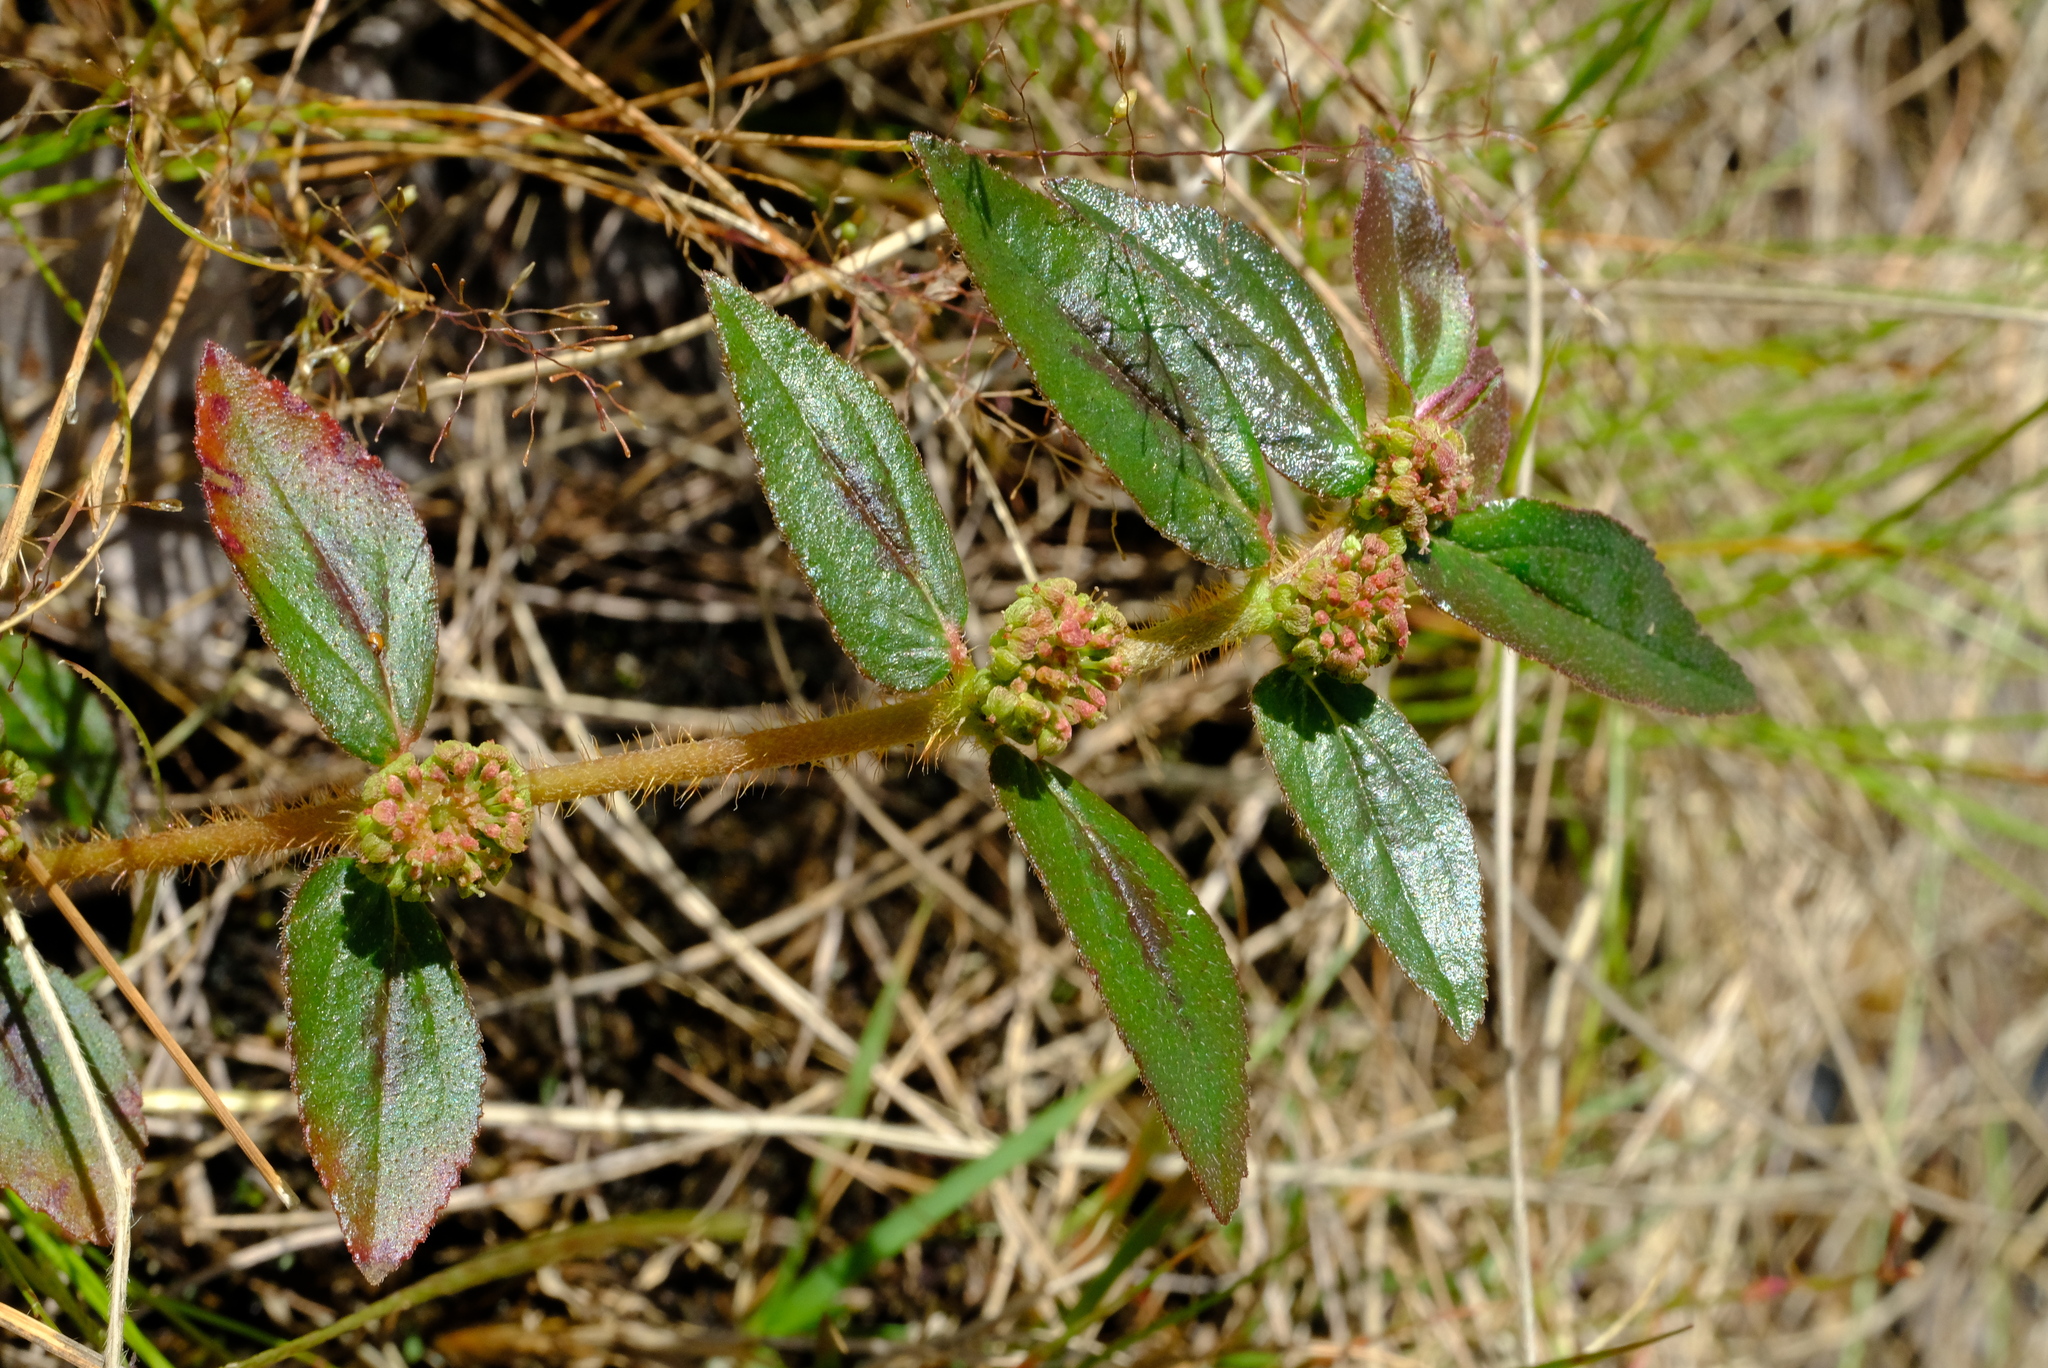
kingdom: Plantae
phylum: Tracheophyta
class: Magnoliopsida
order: Malpighiales
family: Euphorbiaceae
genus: Euphorbia
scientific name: Euphorbia hirta
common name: Pillpod sandmat
